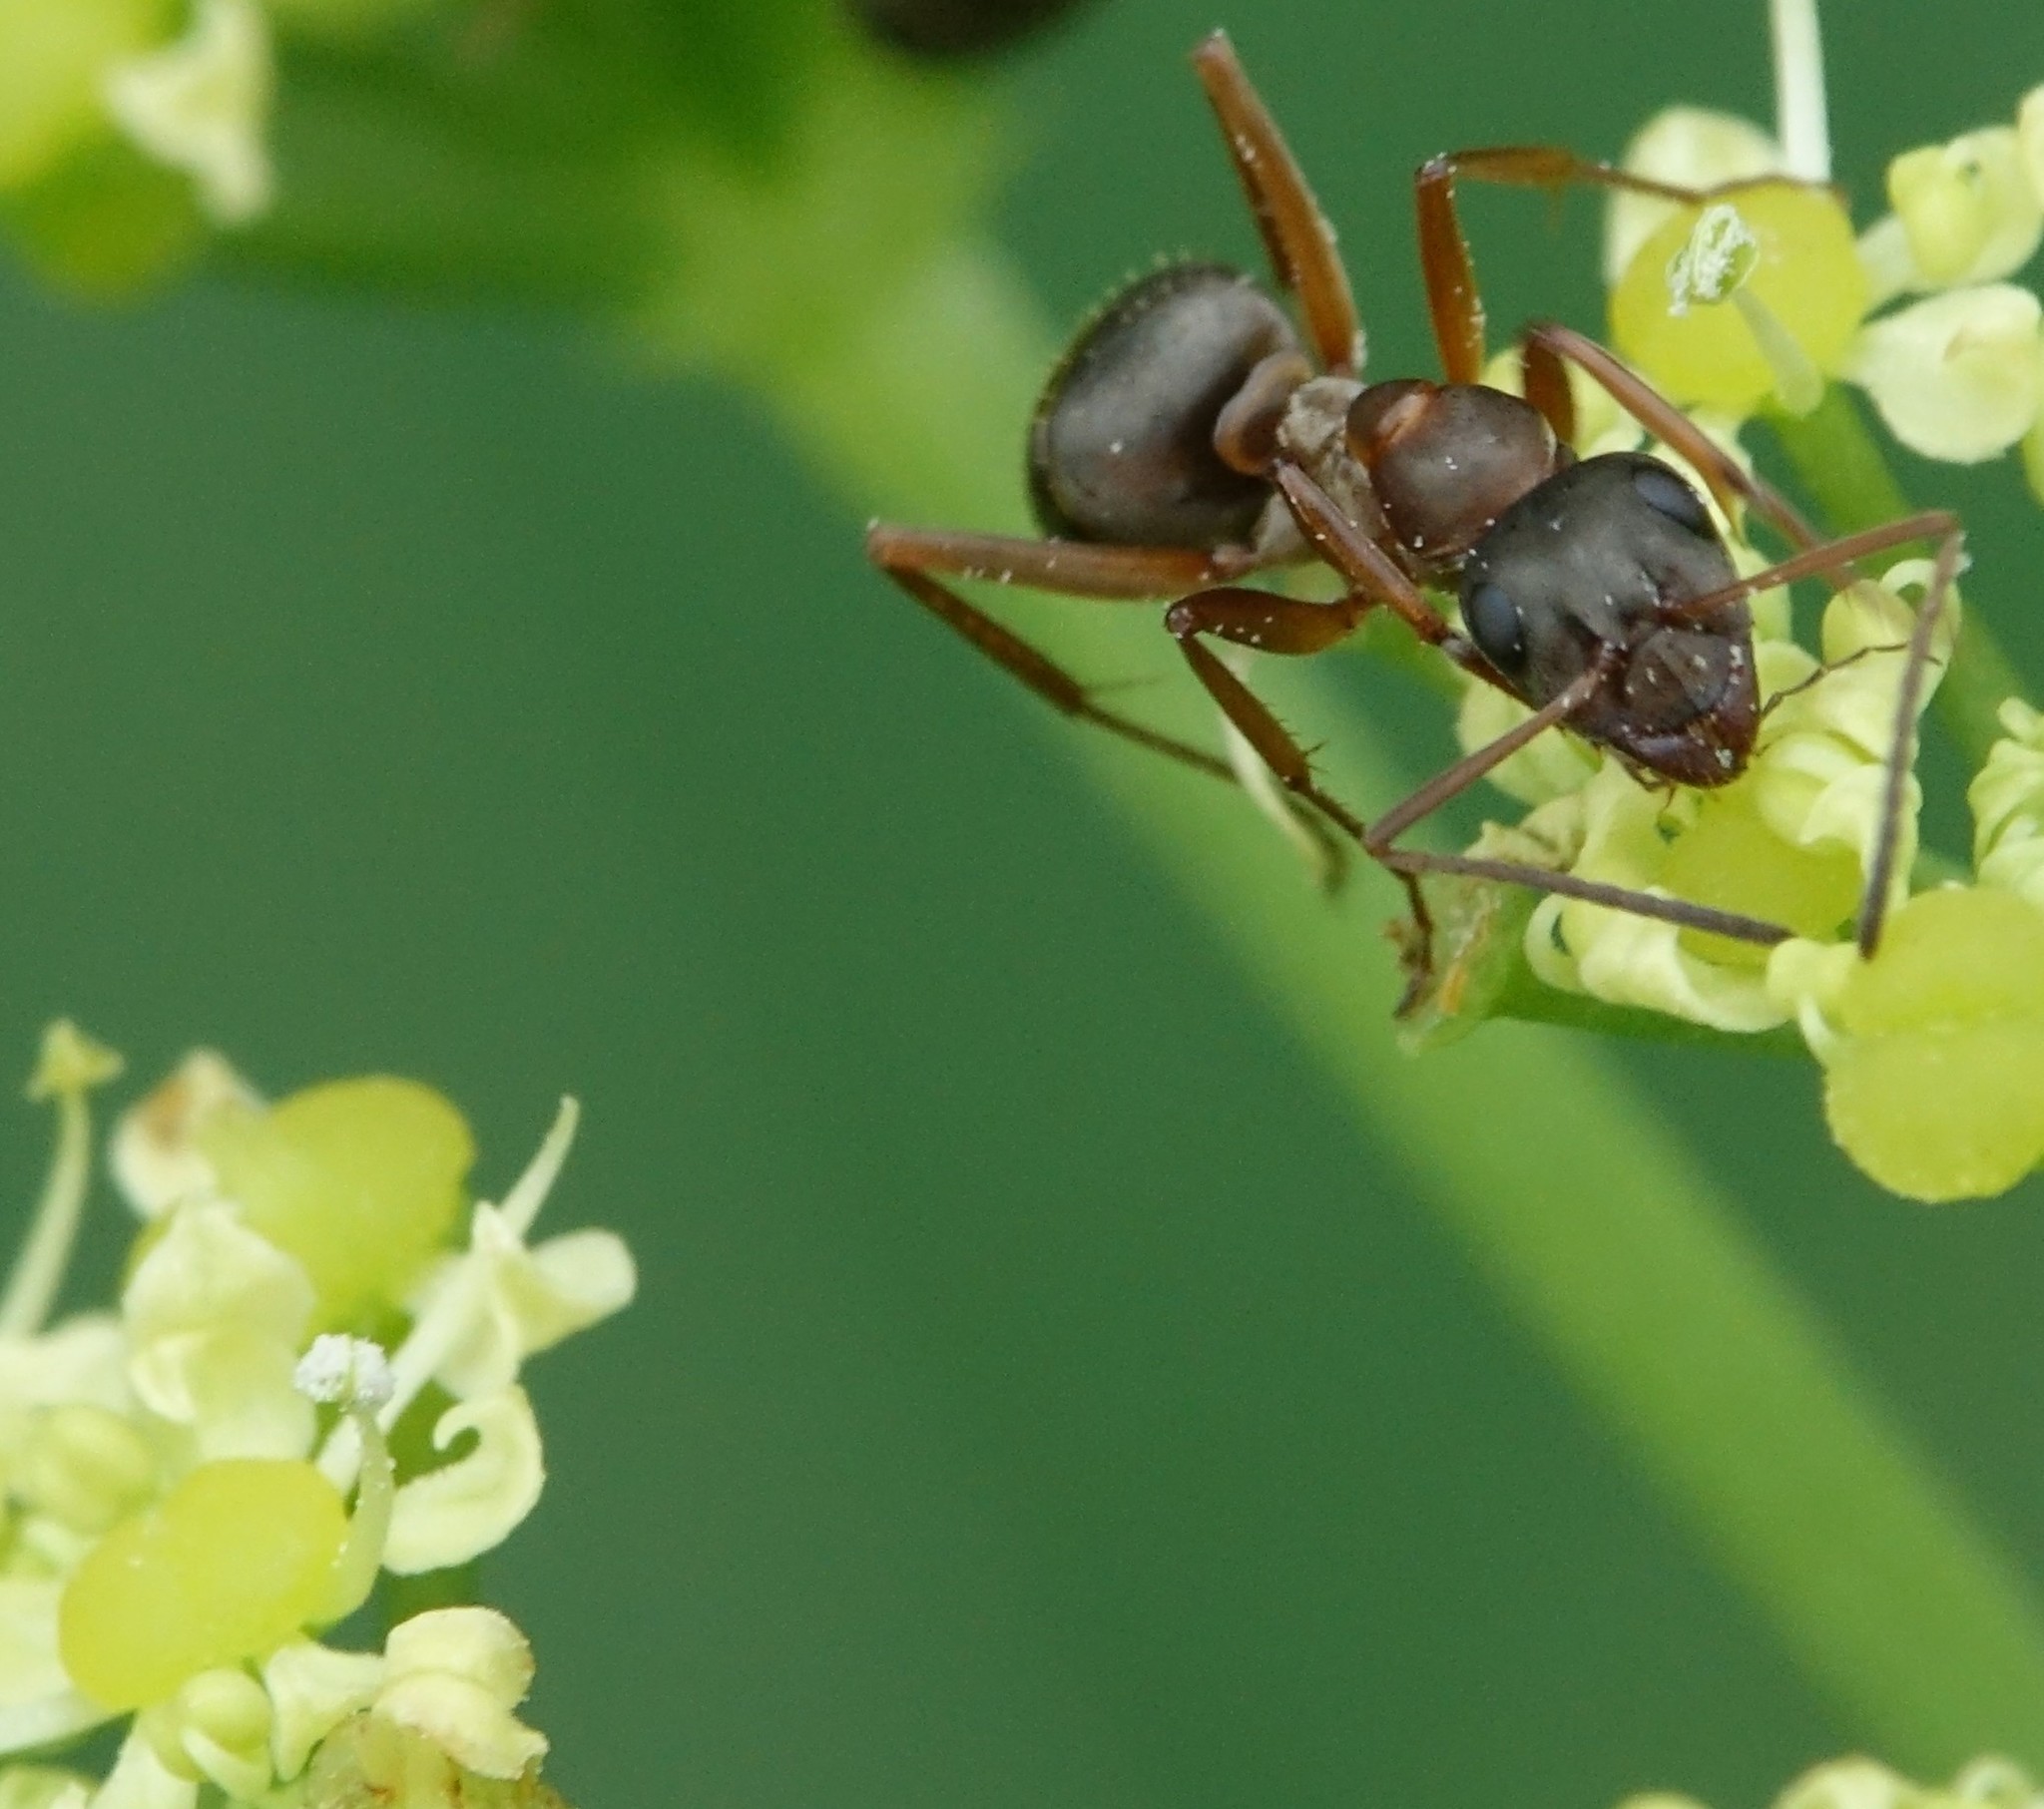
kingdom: Animalia
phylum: Arthropoda
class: Insecta
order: Hymenoptera
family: Formicidae
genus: Formica
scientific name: Formica cunicularia
